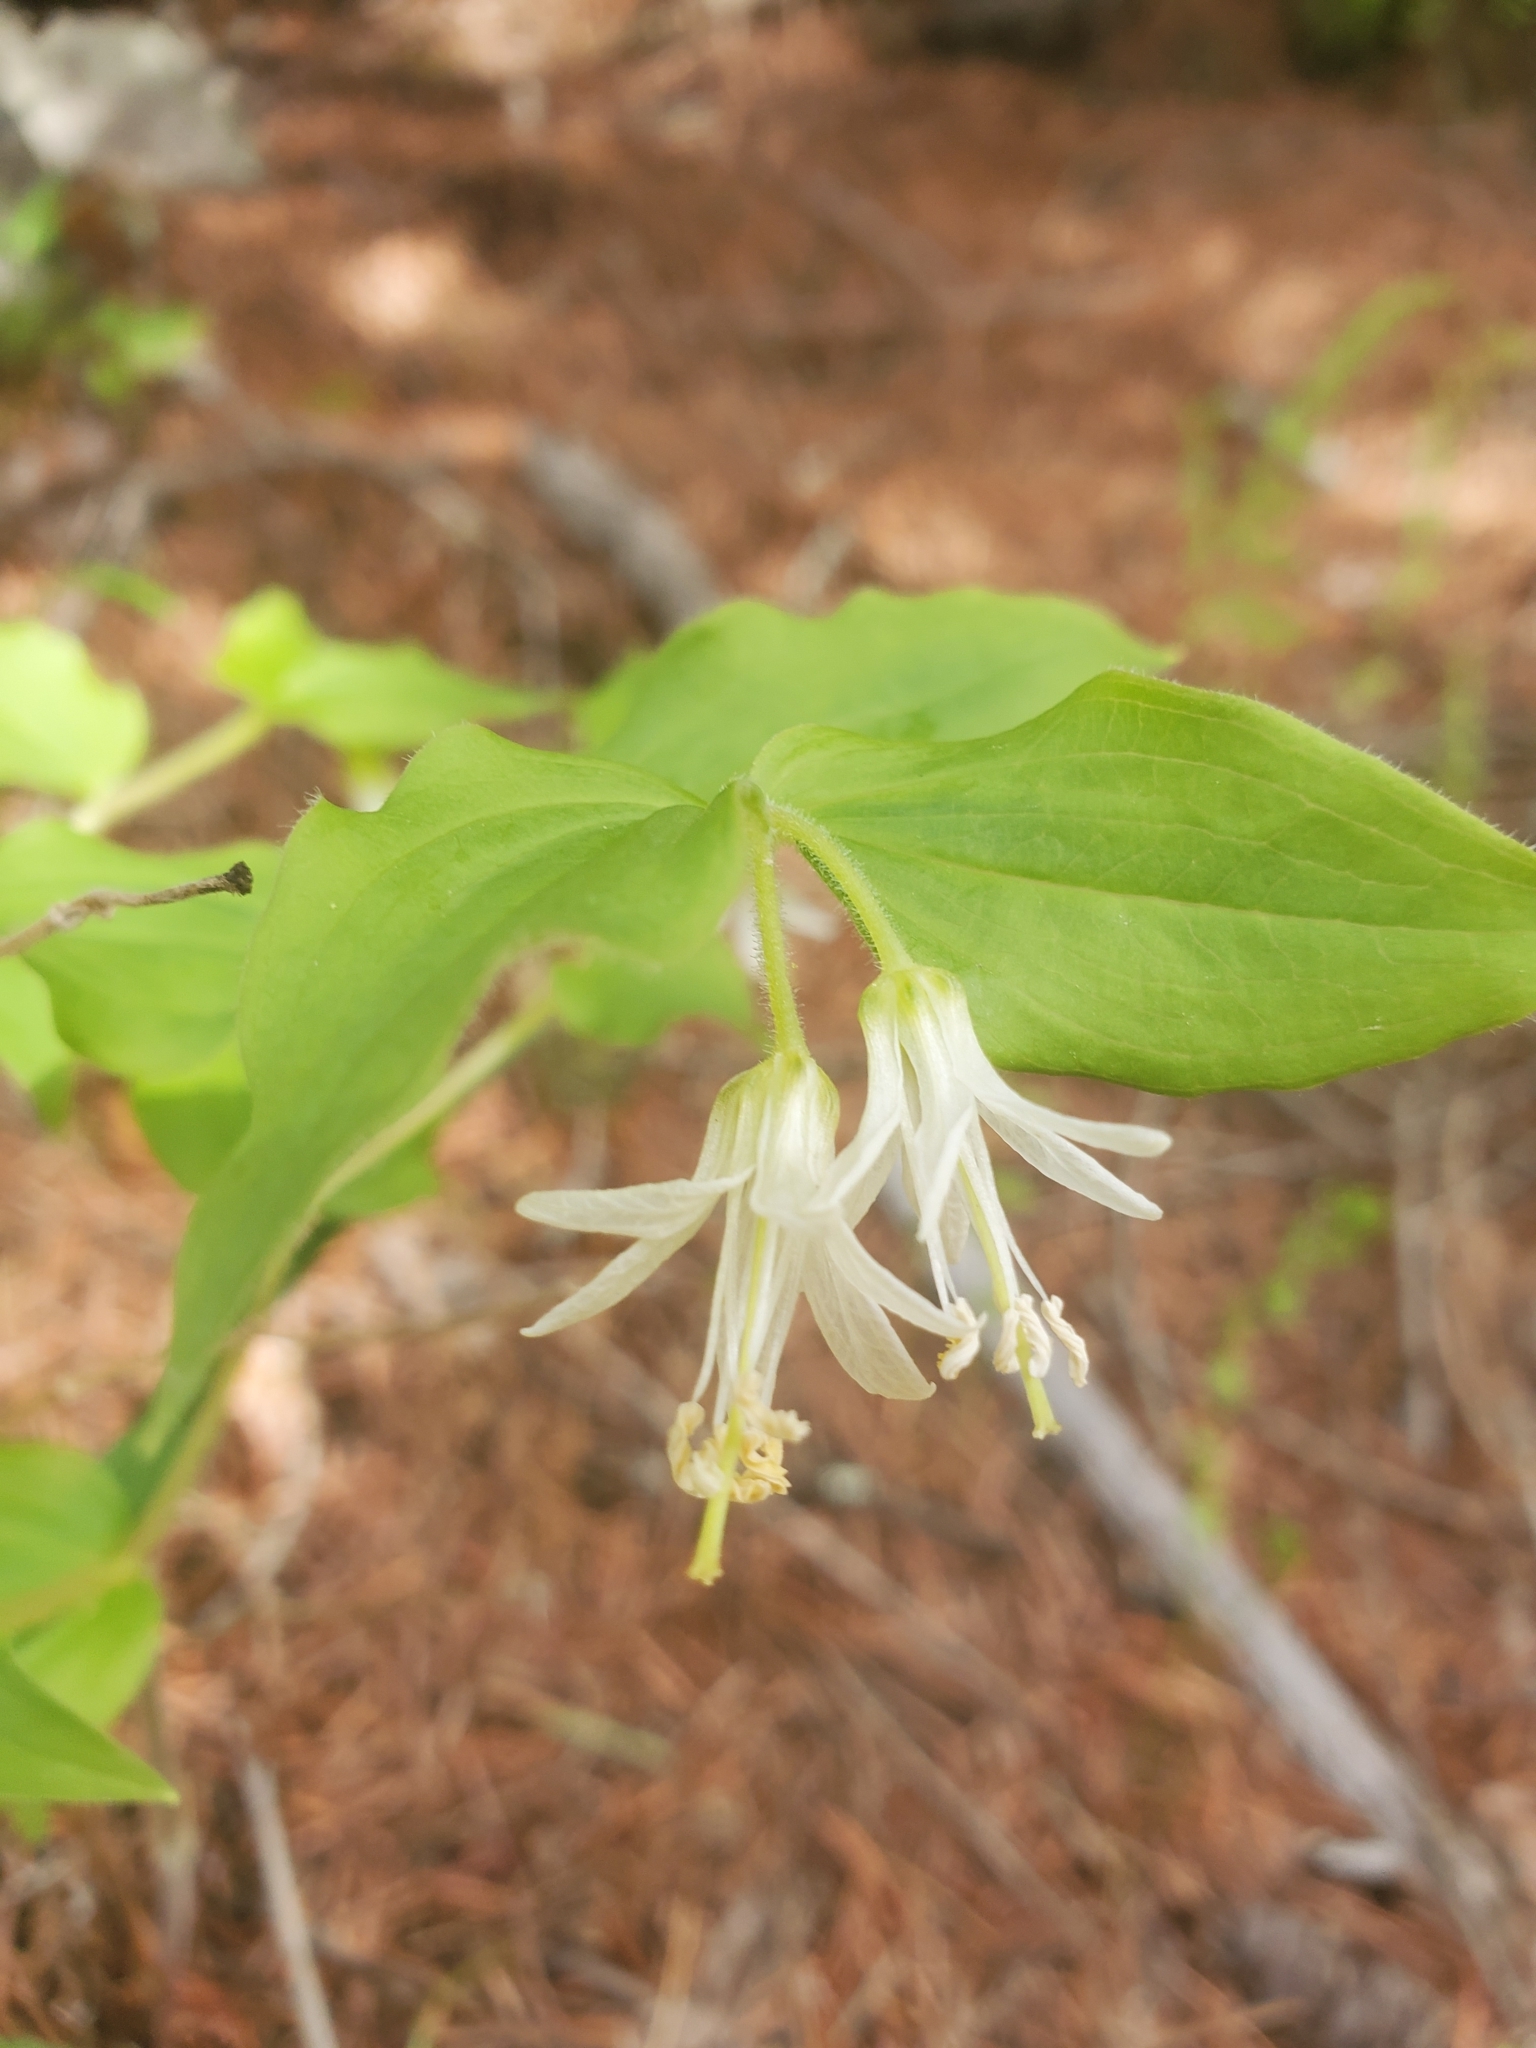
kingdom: Plantae
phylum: Tracheophyta
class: Liliopsida
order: Liliales
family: Liliaceae
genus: Prosartes
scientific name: Prosartes trachycarpa
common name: Rough-fruit fairy-bells
